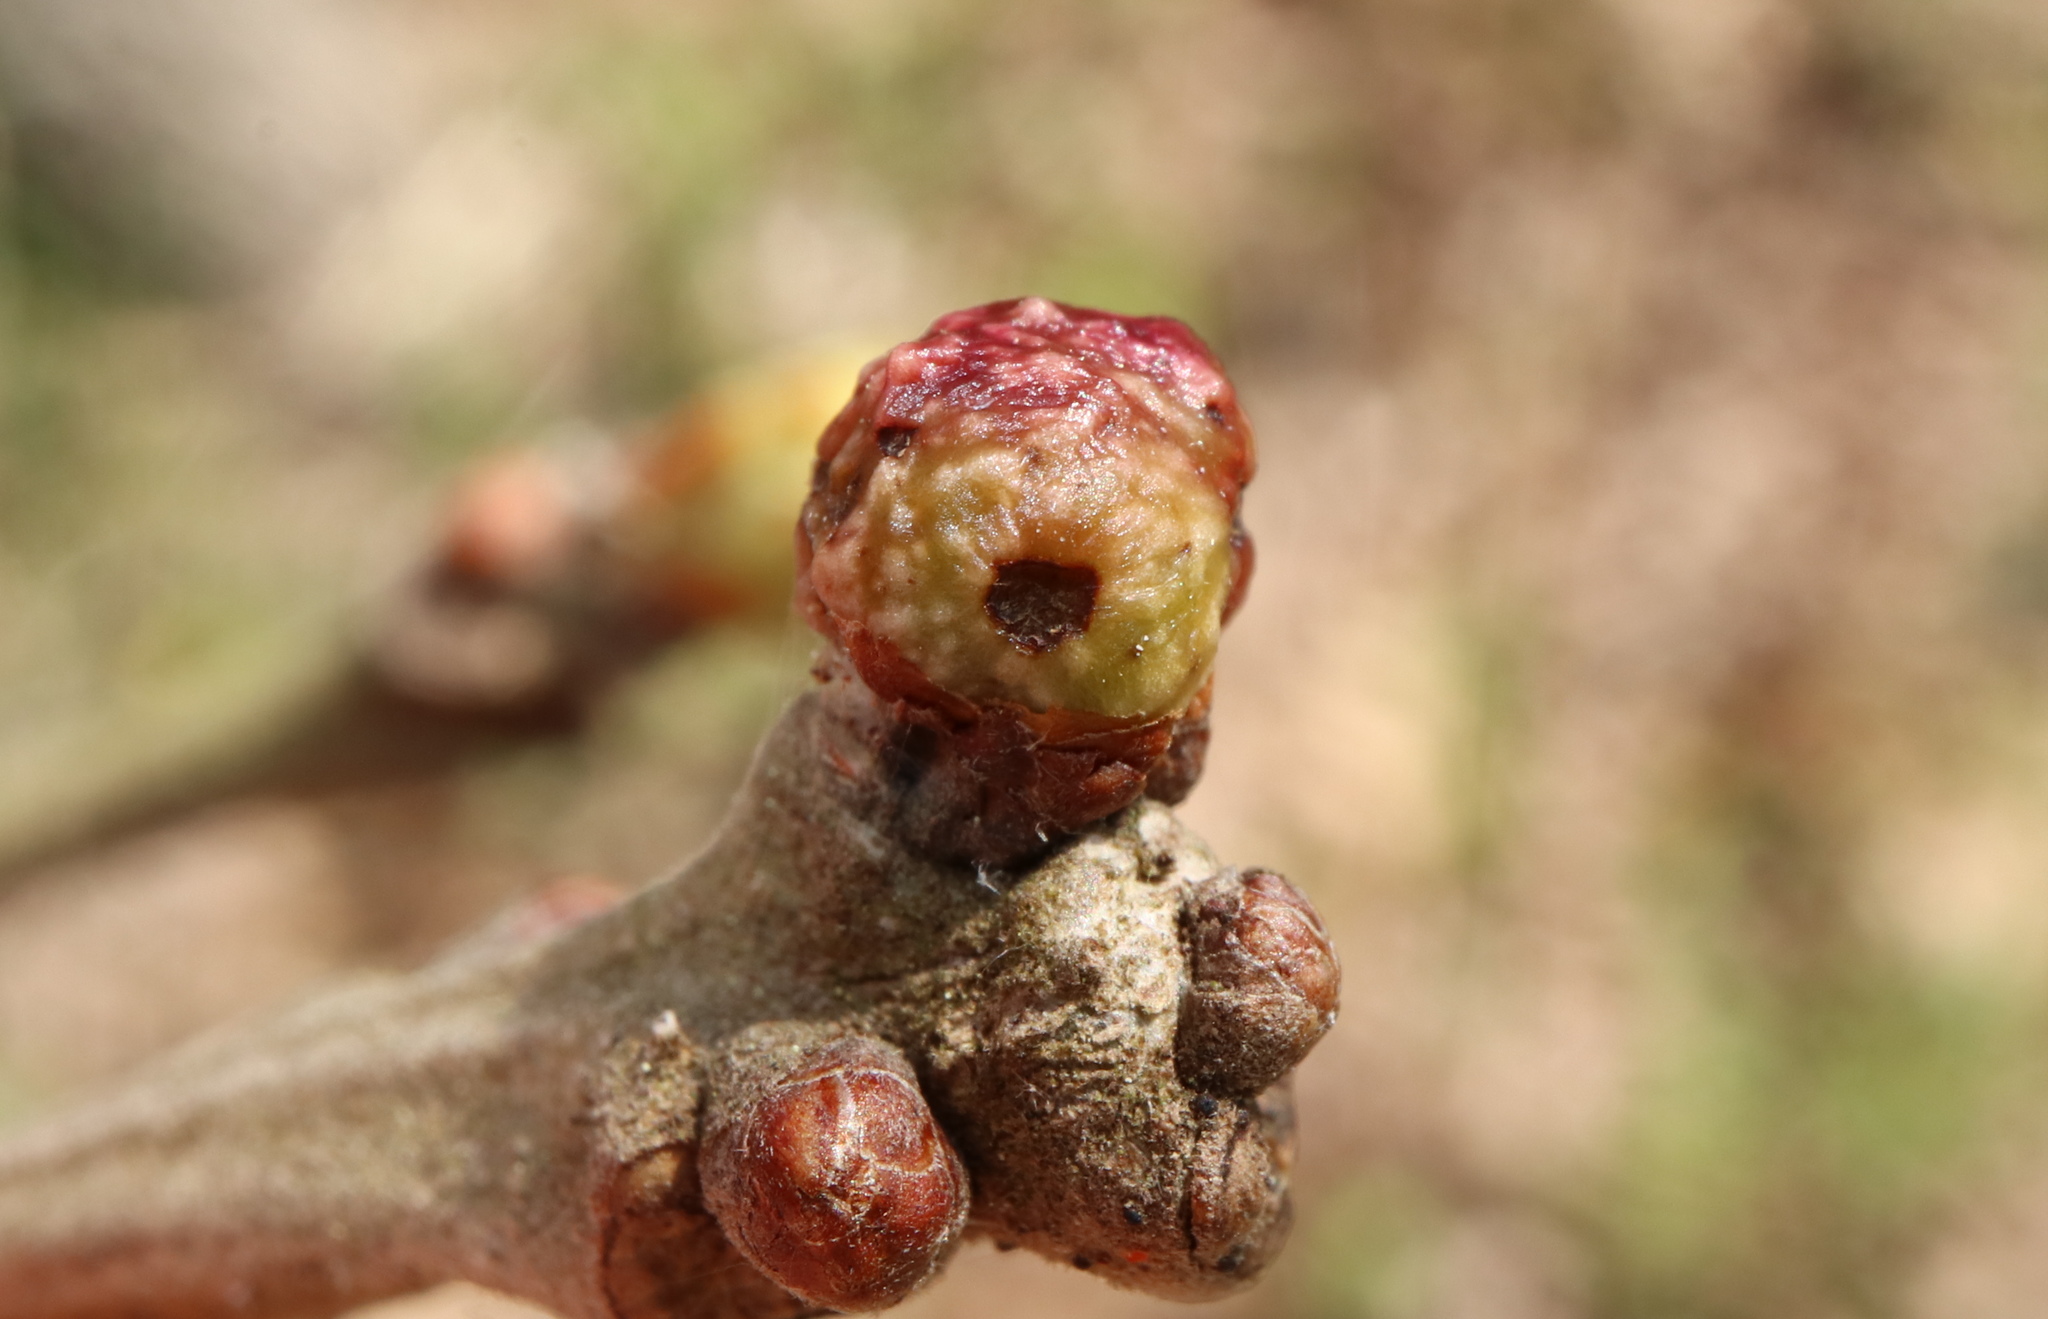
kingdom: Animalia
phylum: Arthropoda
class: Insecta
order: Hymenoptera
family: Cynipidae
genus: Andricus
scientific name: Andricus
